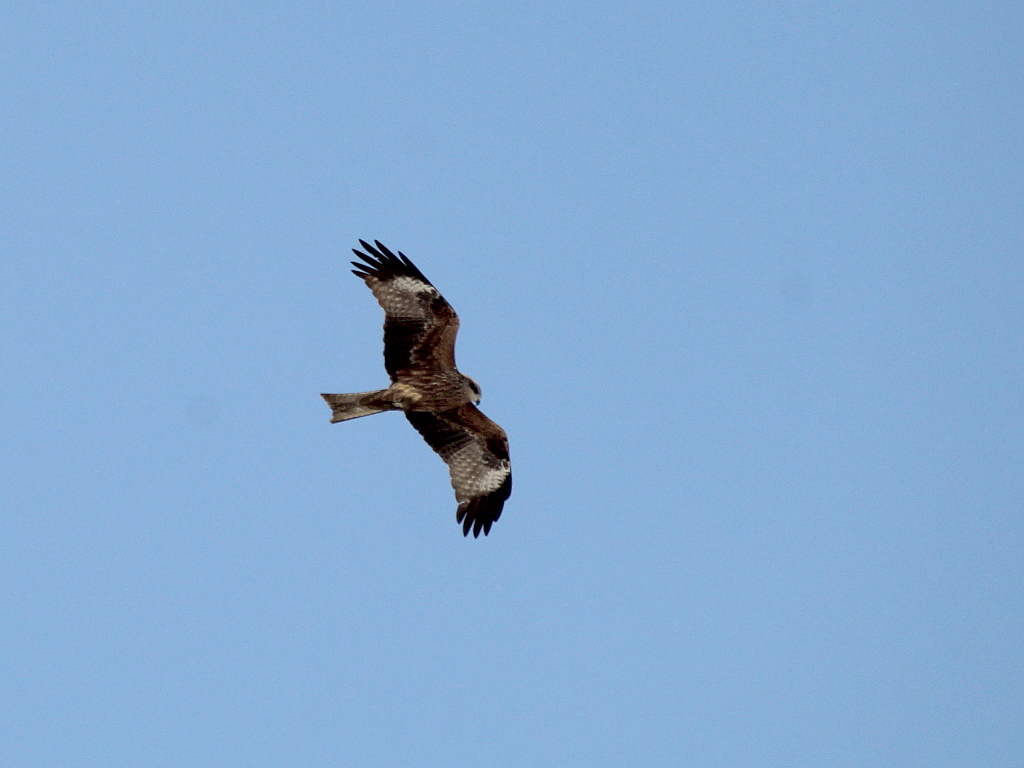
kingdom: Animalia
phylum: Chordata
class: Aves
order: Accipitriformes
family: Accipitridae
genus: Milvus
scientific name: Milvus migrans
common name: Black kite
